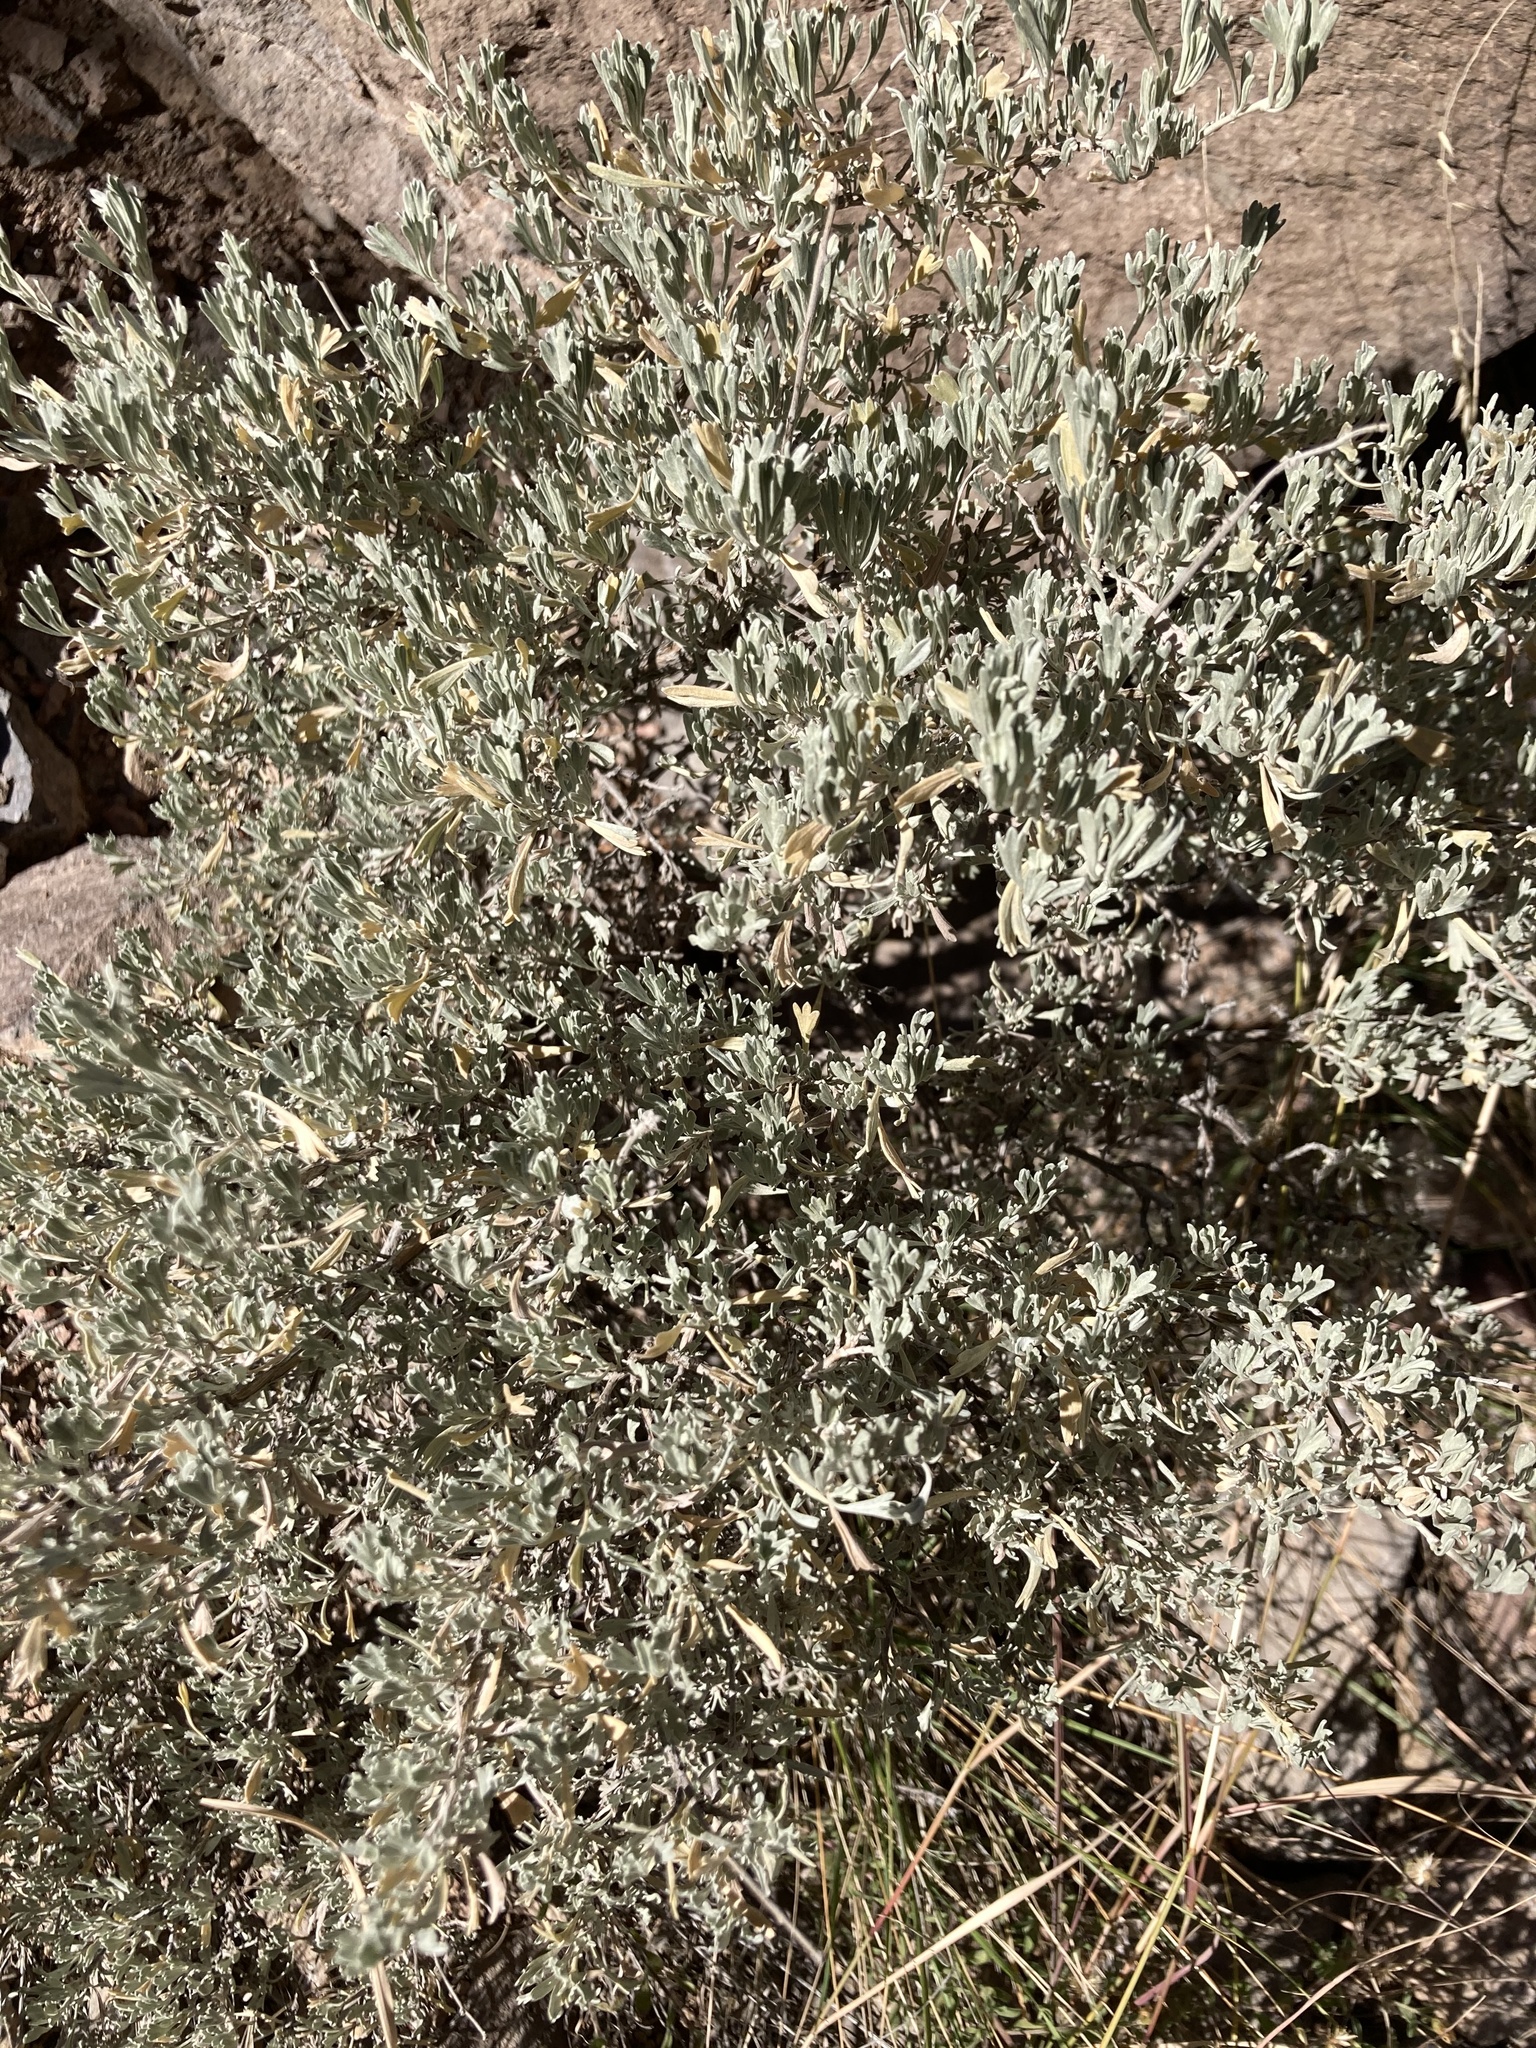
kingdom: Plantae
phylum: Tracheophyta
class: Magnoliopsida
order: Asterales
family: Asteraceae
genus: Artemisia
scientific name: Artemisia tridentata
